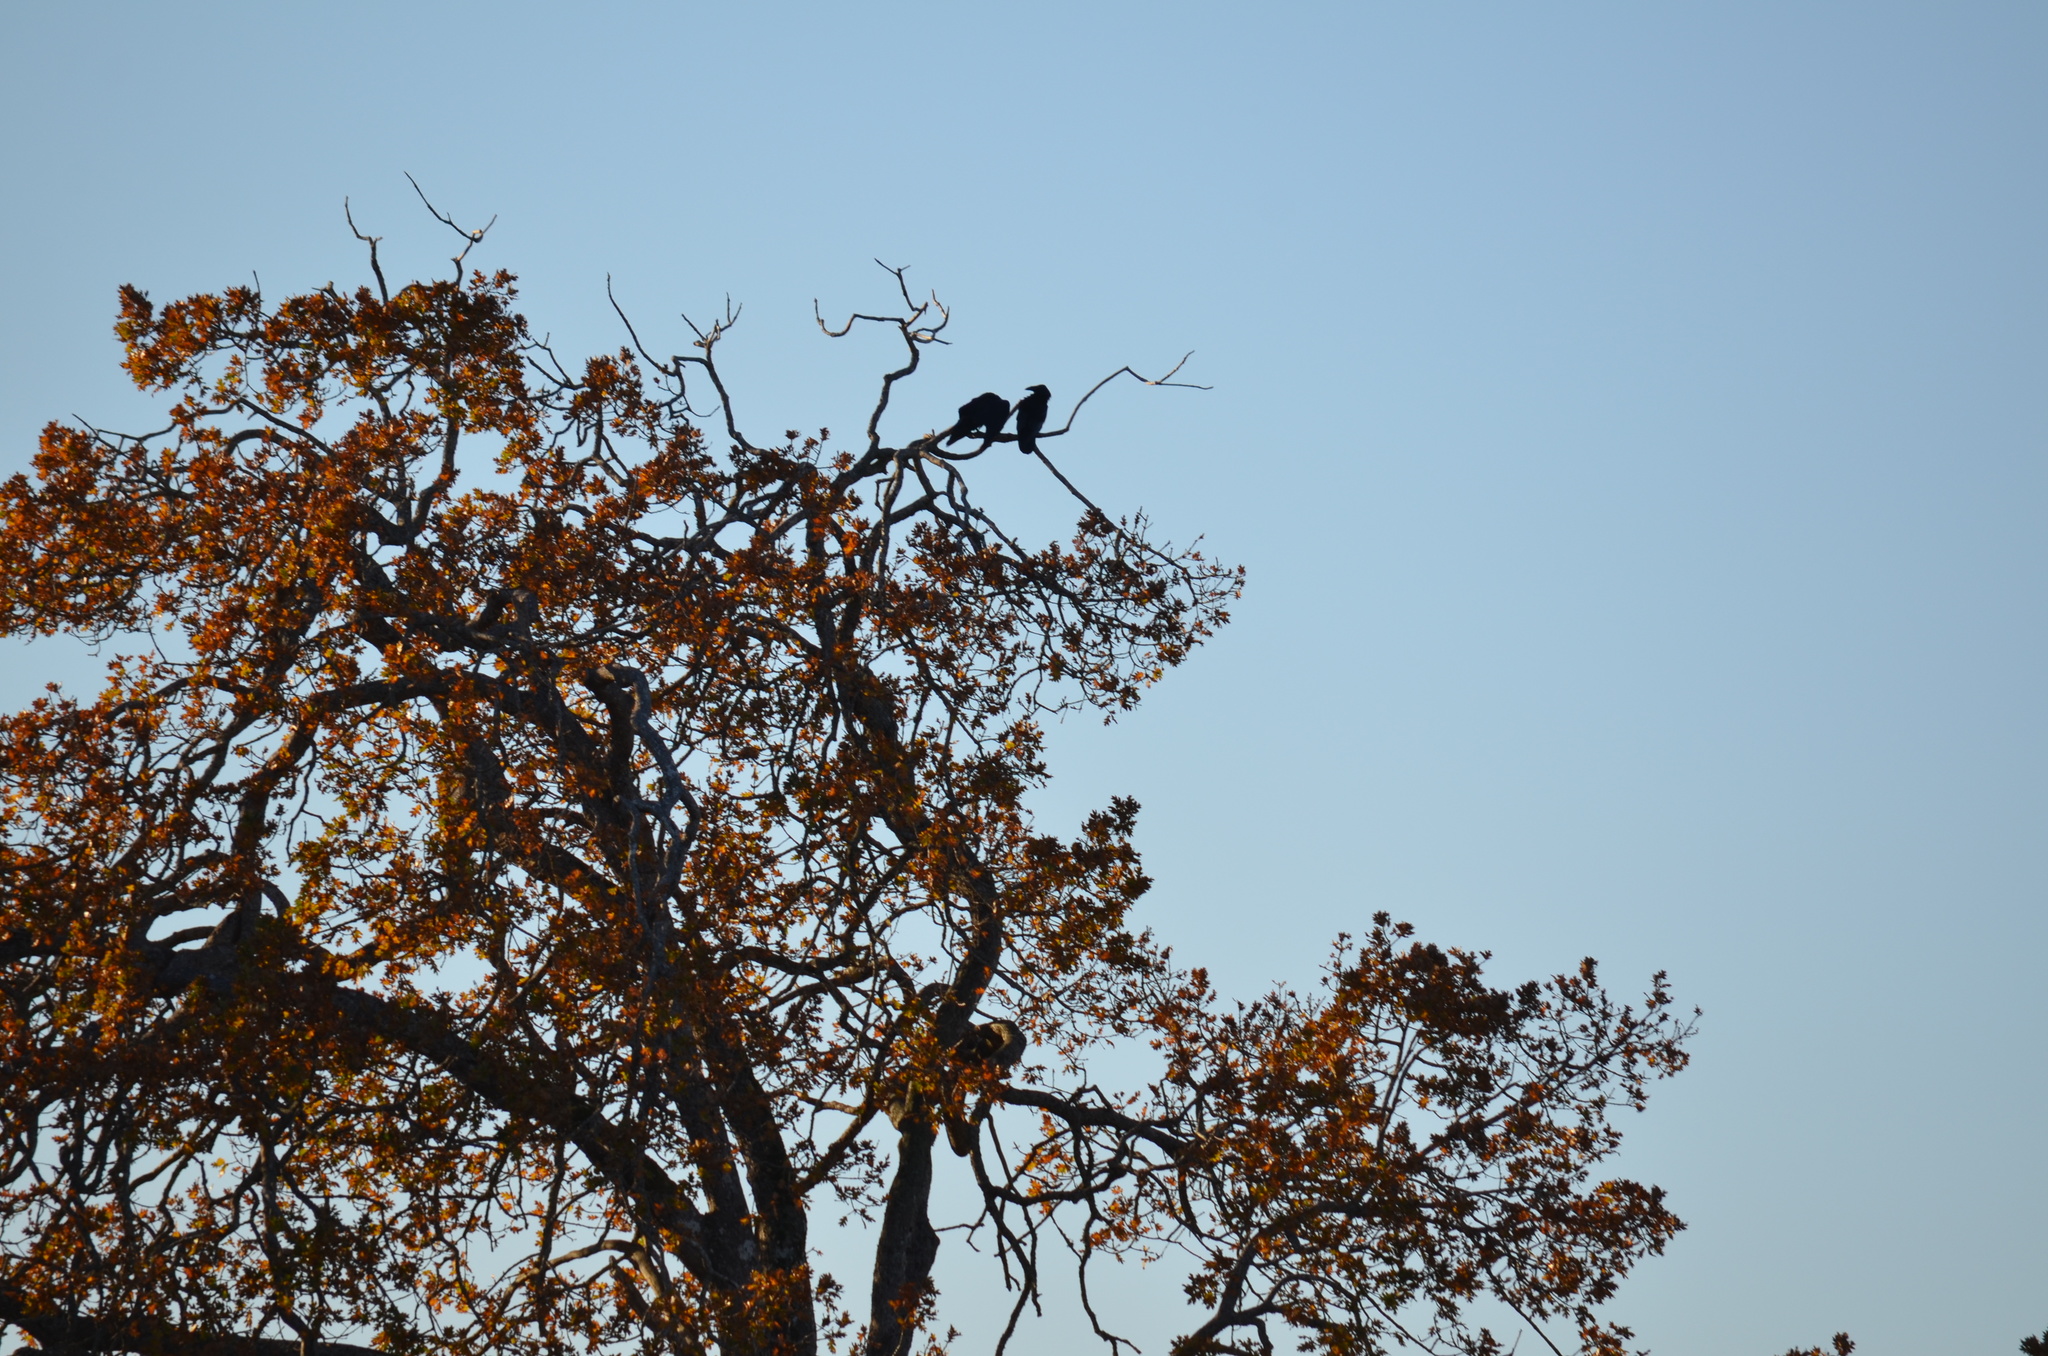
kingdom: Animalia
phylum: Chordata
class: Aves
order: Passeriformes
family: Corvidae
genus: Corvus
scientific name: Corvus corax
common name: Common raven
